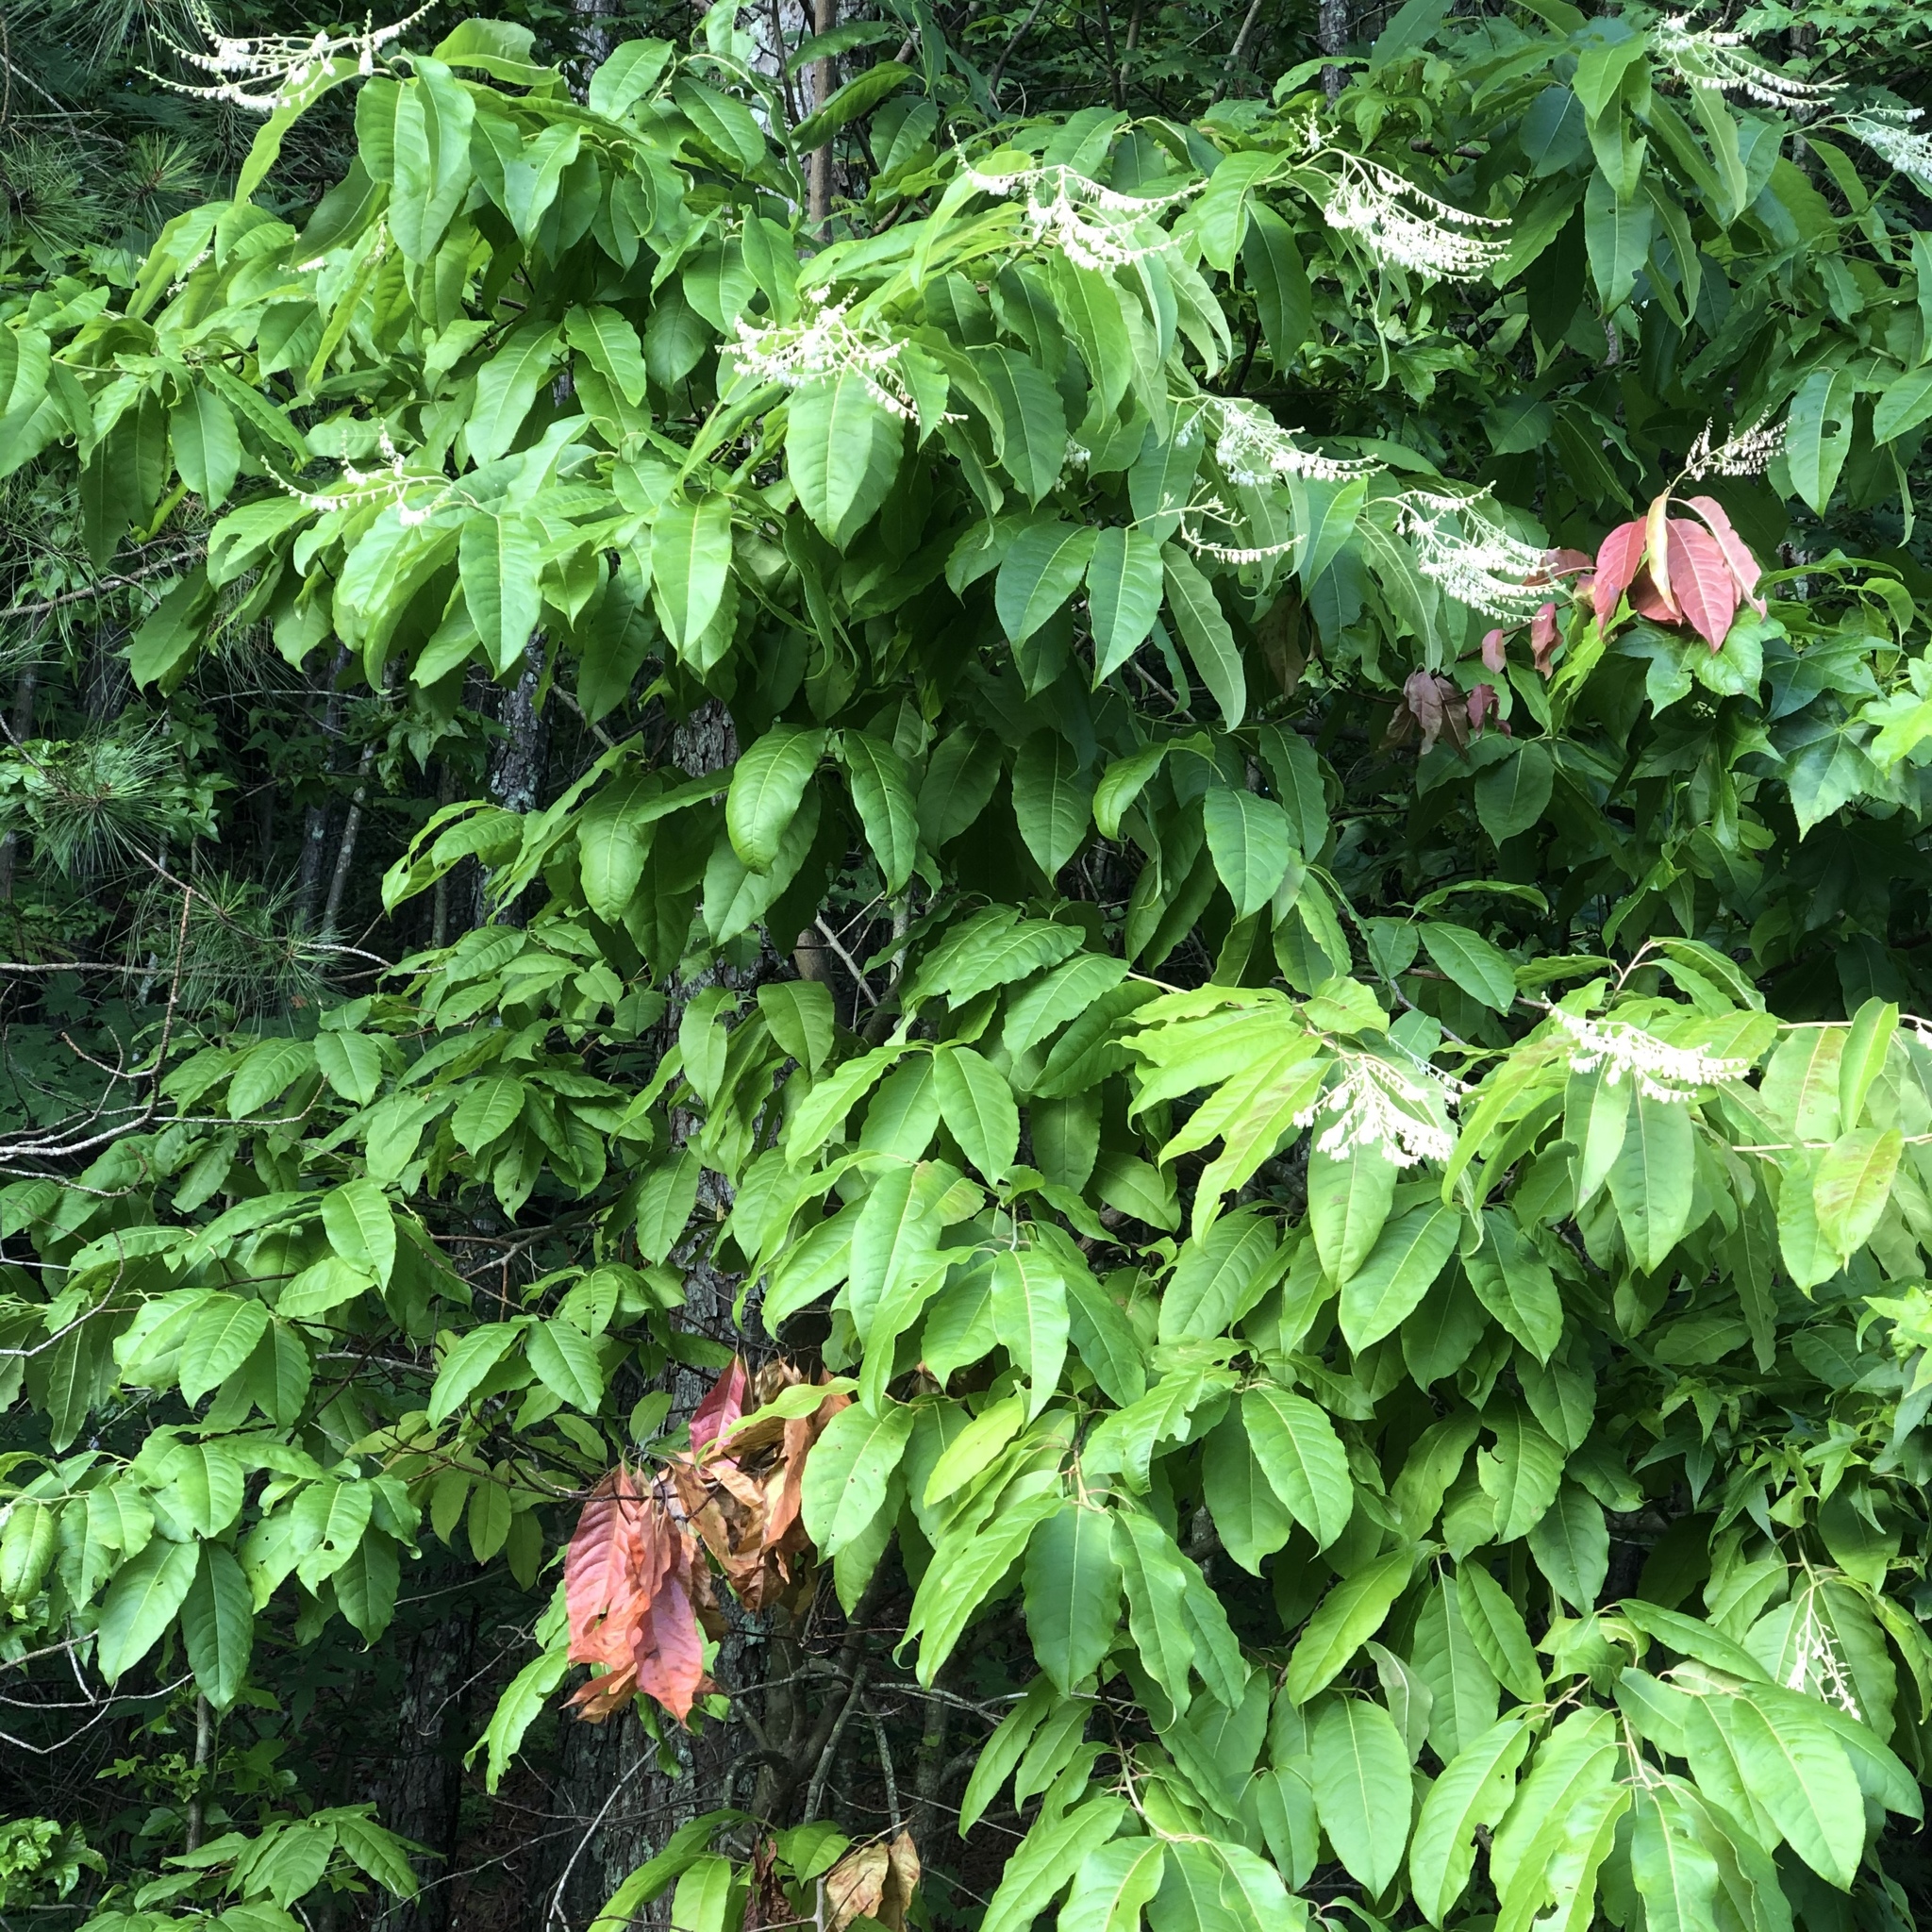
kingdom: Plantae
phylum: Tracheophyta
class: Magnoliopsida
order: Ericales
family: Ericaceae
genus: Oxydendrum
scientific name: Oxydendrum arboreum
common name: Sourwood
